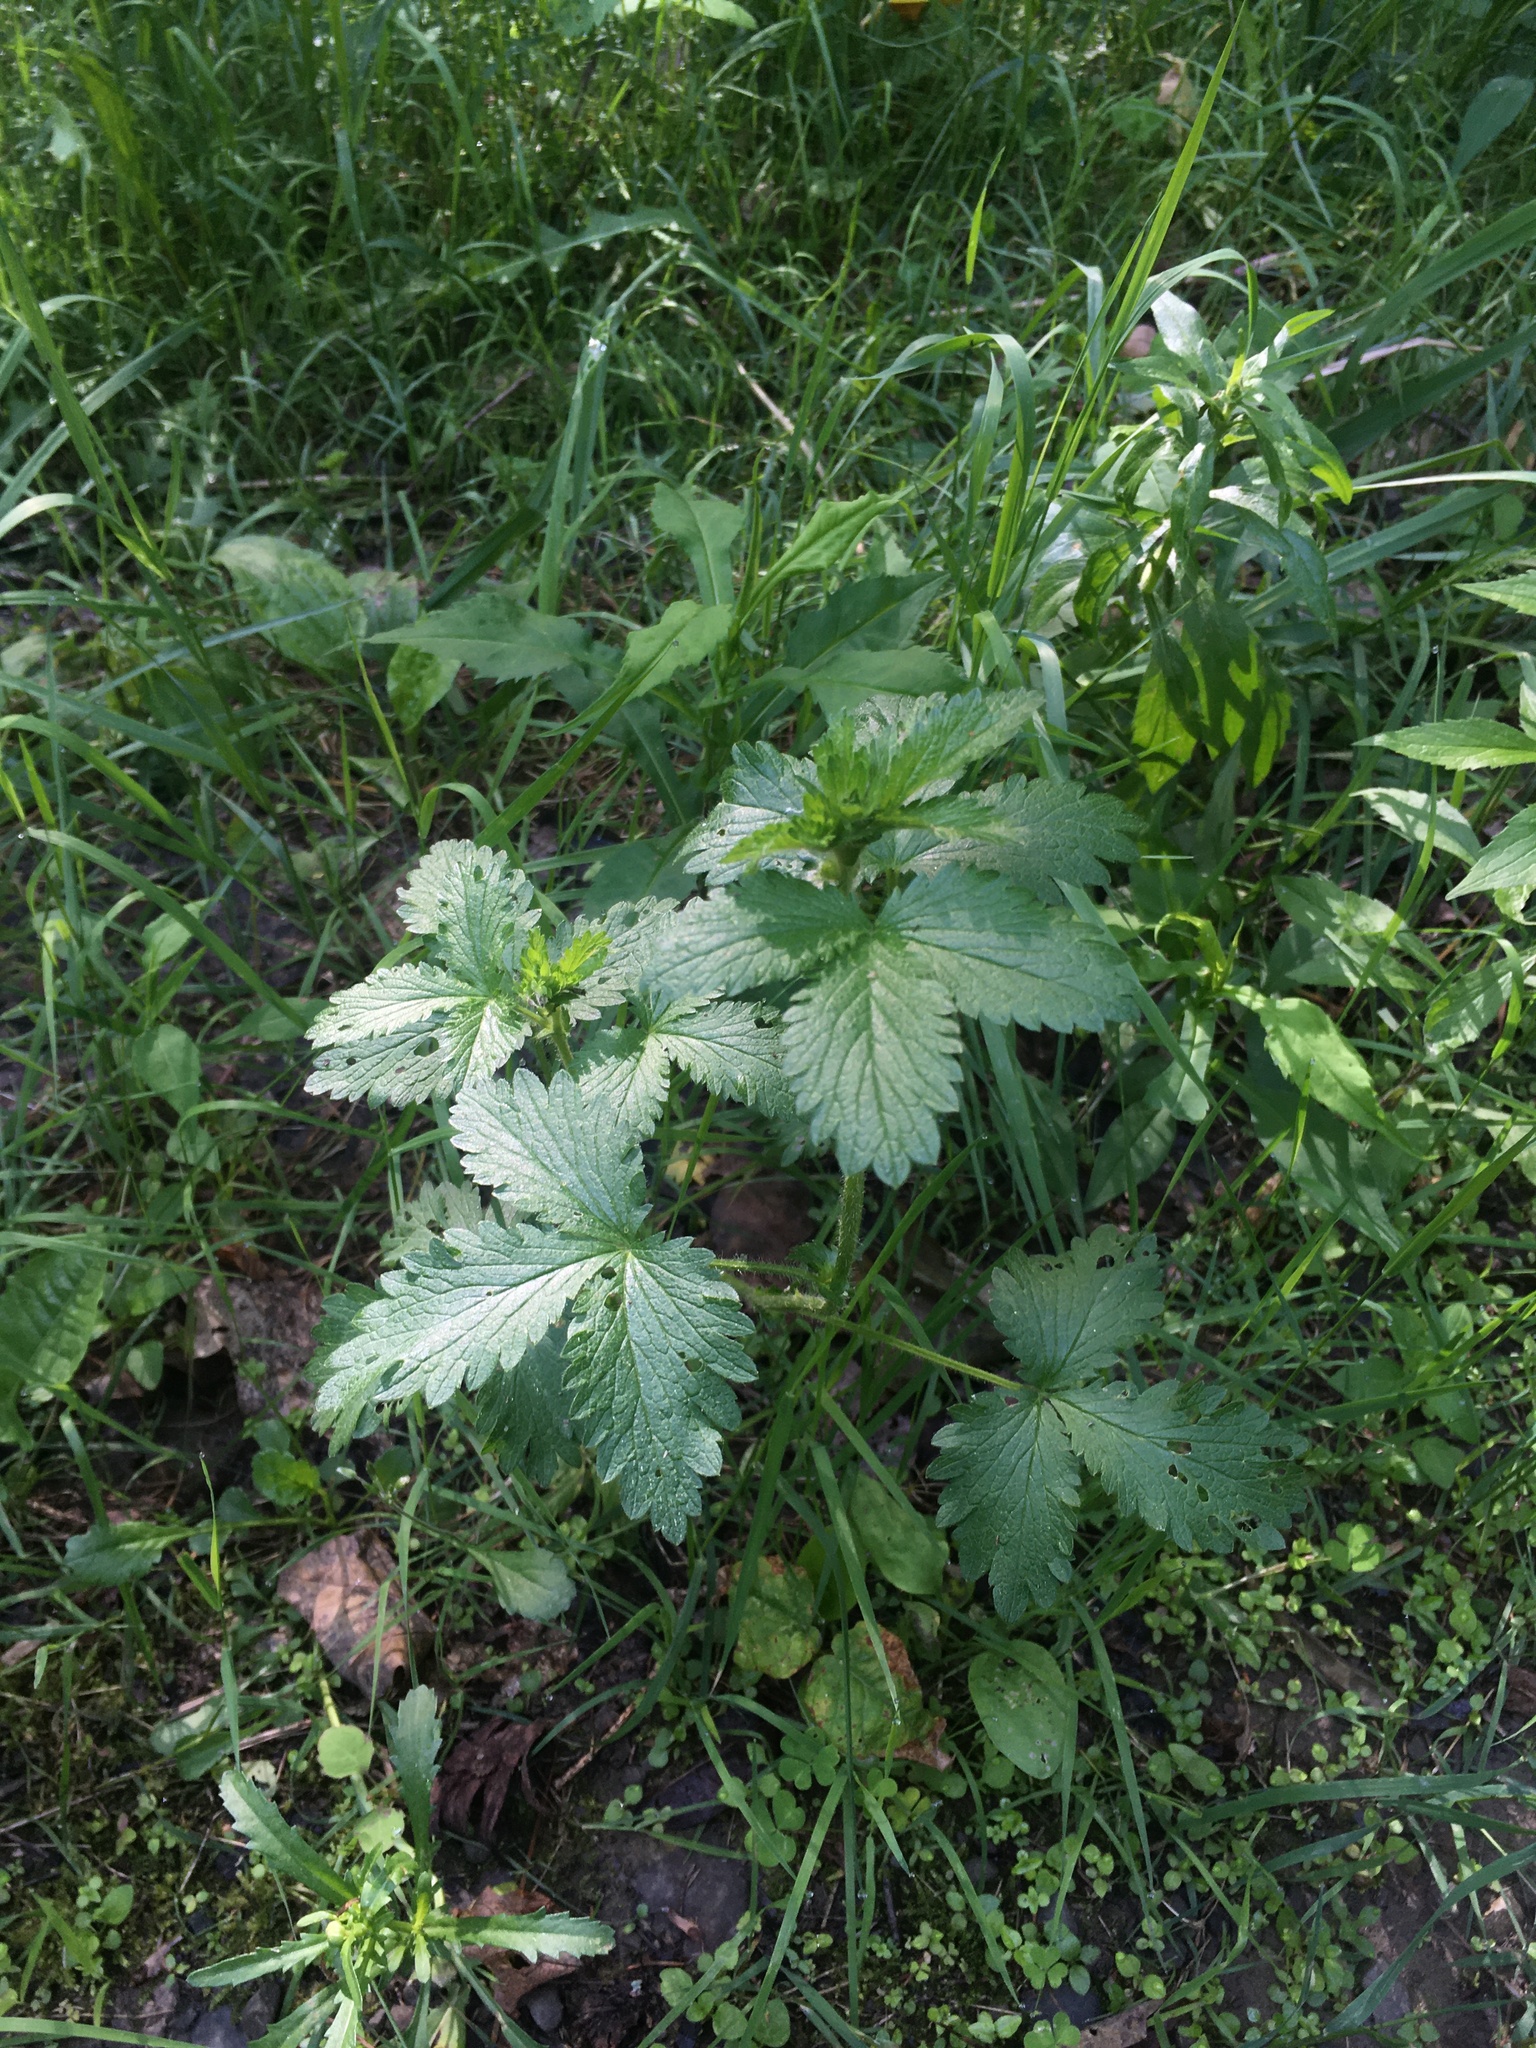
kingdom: Plantae
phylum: Tracheophyta
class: Magnoliopsida
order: Rosales
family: Rosaceae
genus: Potentilla
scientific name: Potentilla norvegica
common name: Ternate-leaved cinquefoil
